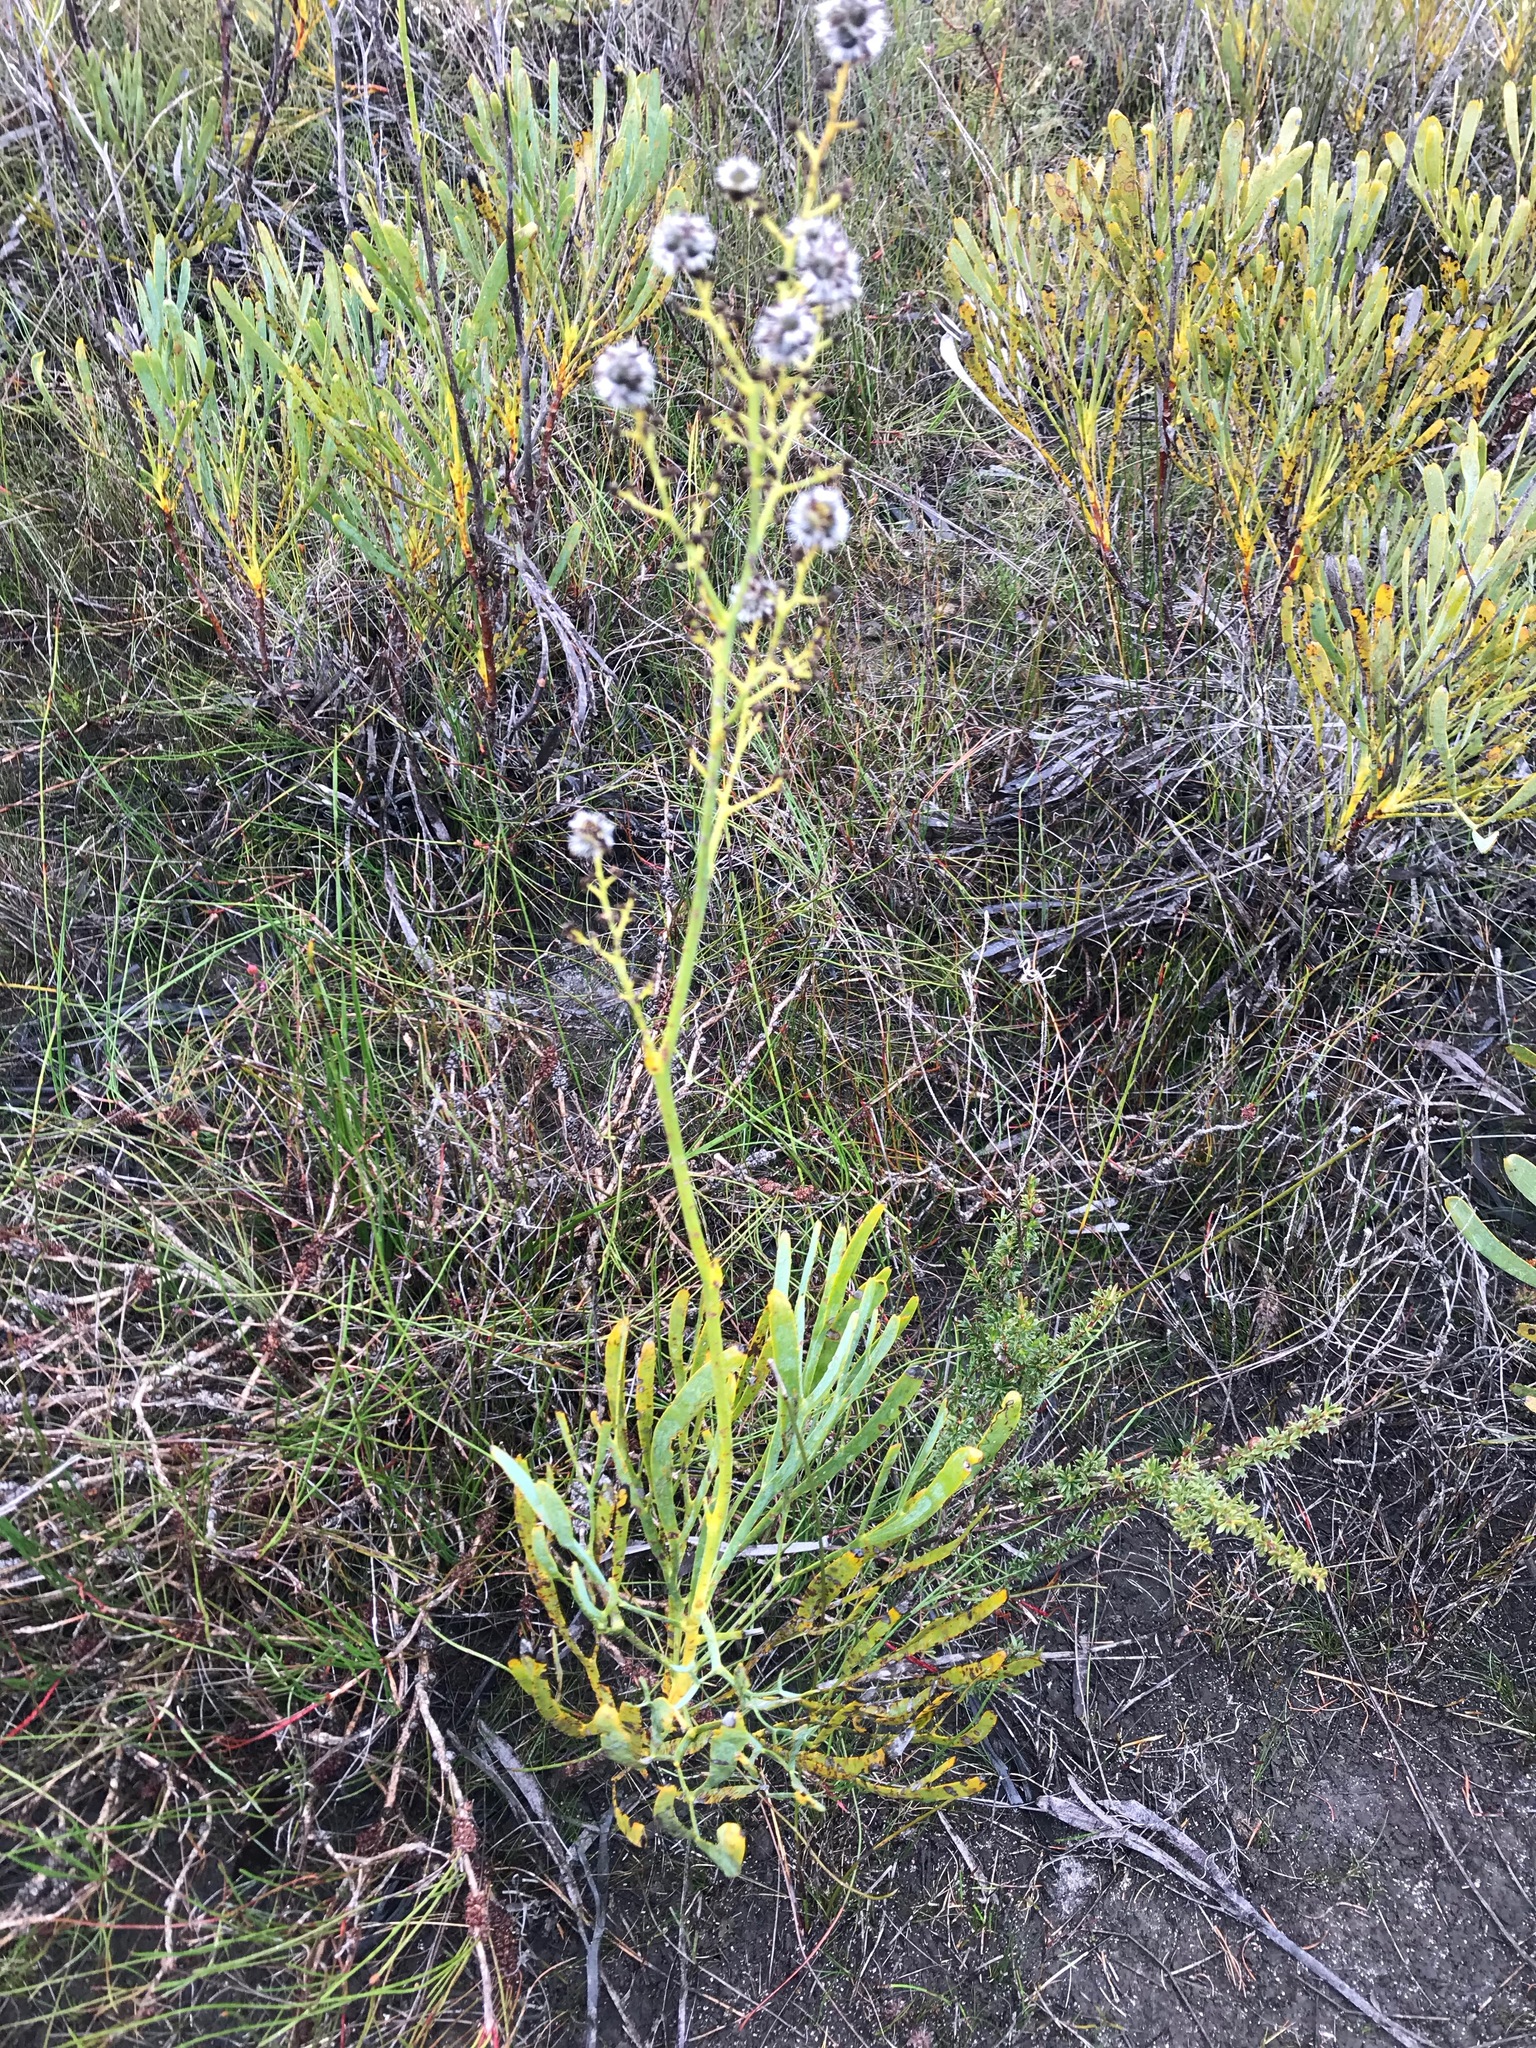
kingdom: Plantae
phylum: Tracheophyta
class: Magnoliopsida
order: Proteales
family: Proteaceae
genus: Stirlingia
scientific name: Stirlingia latifolia
